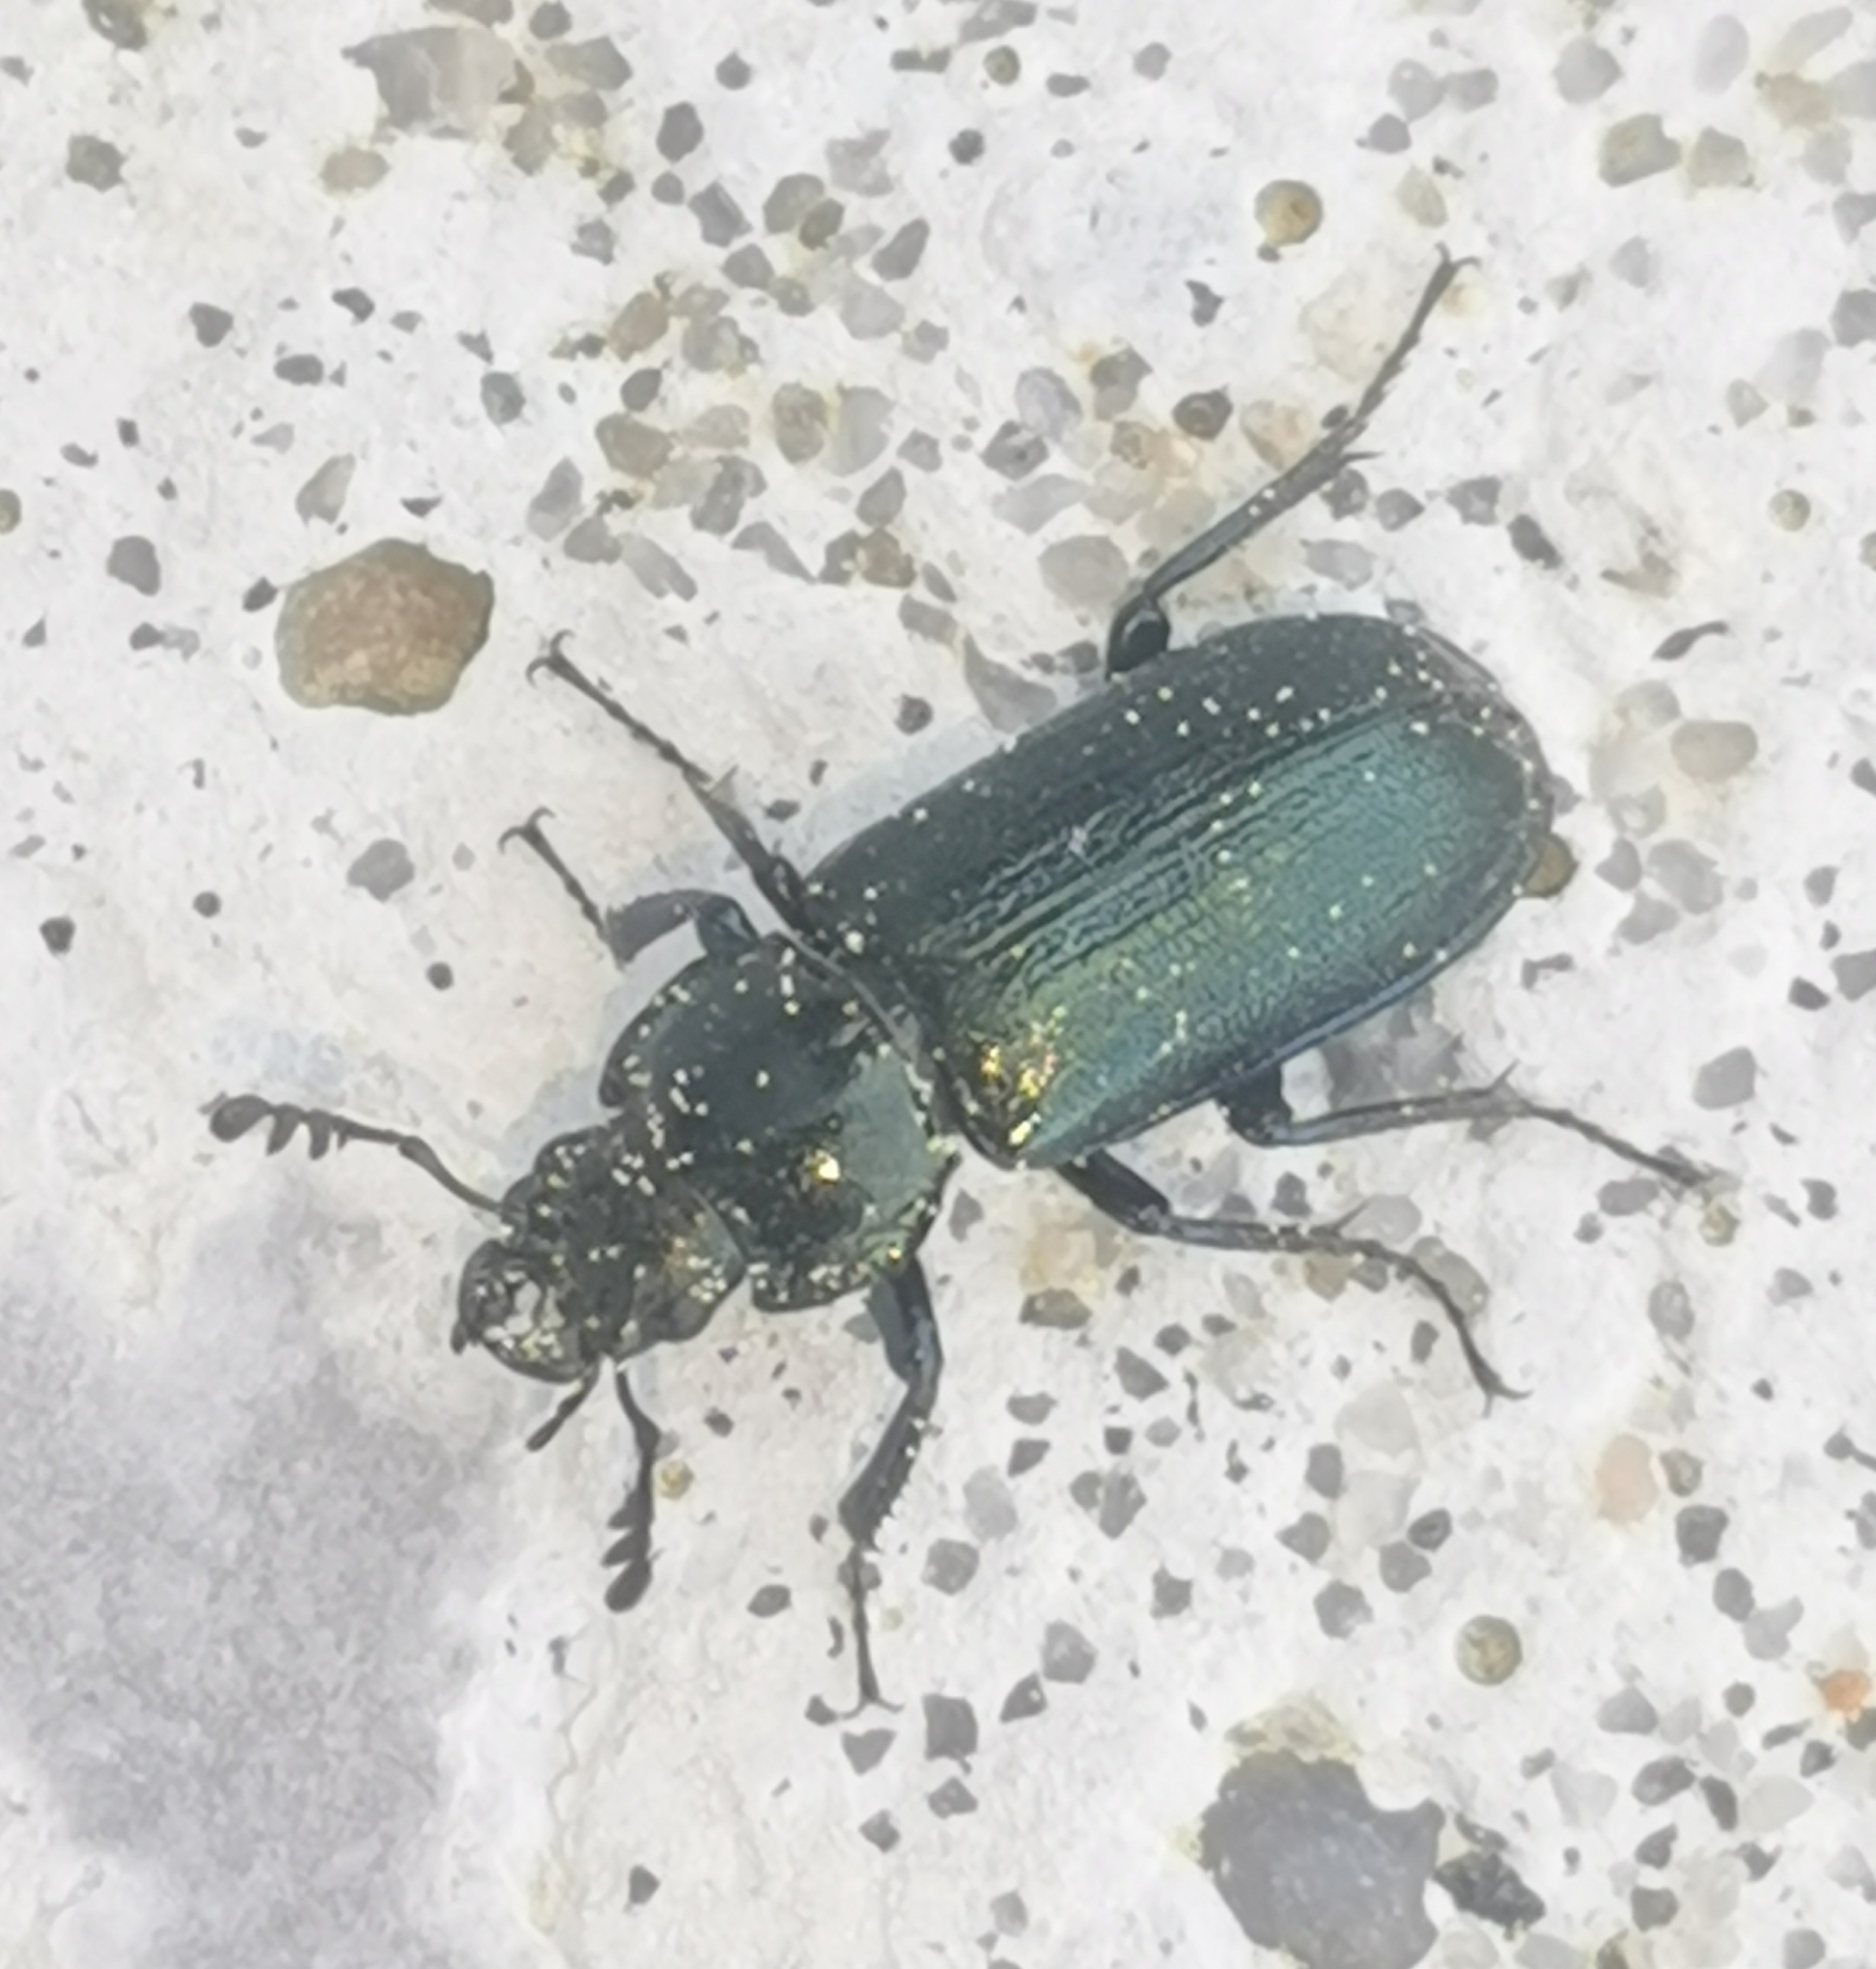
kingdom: Animalia
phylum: Arthropoda
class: Insecta
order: Coleoptera
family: Lucanidae
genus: Platycerus
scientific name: Platycerus caprea
